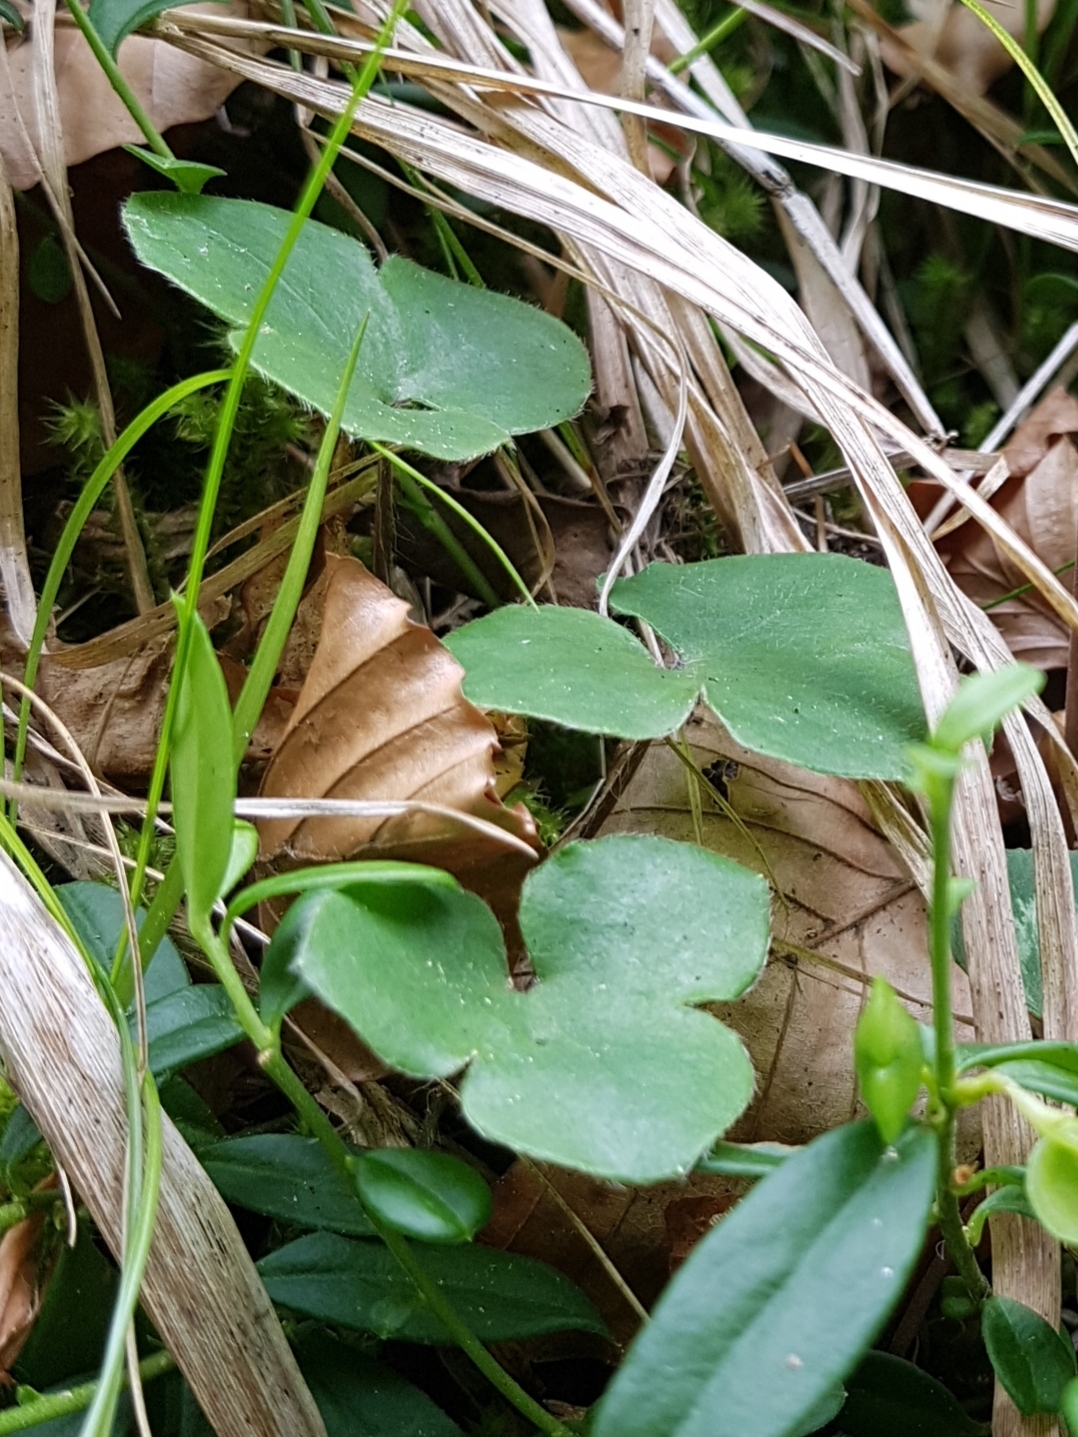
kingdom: Plantae
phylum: Tracheophyta
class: Magnoliopsida
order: Ranunculales
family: Ranunculaceae
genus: Hepatica
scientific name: Hepatica nobilis
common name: Liverleaf
